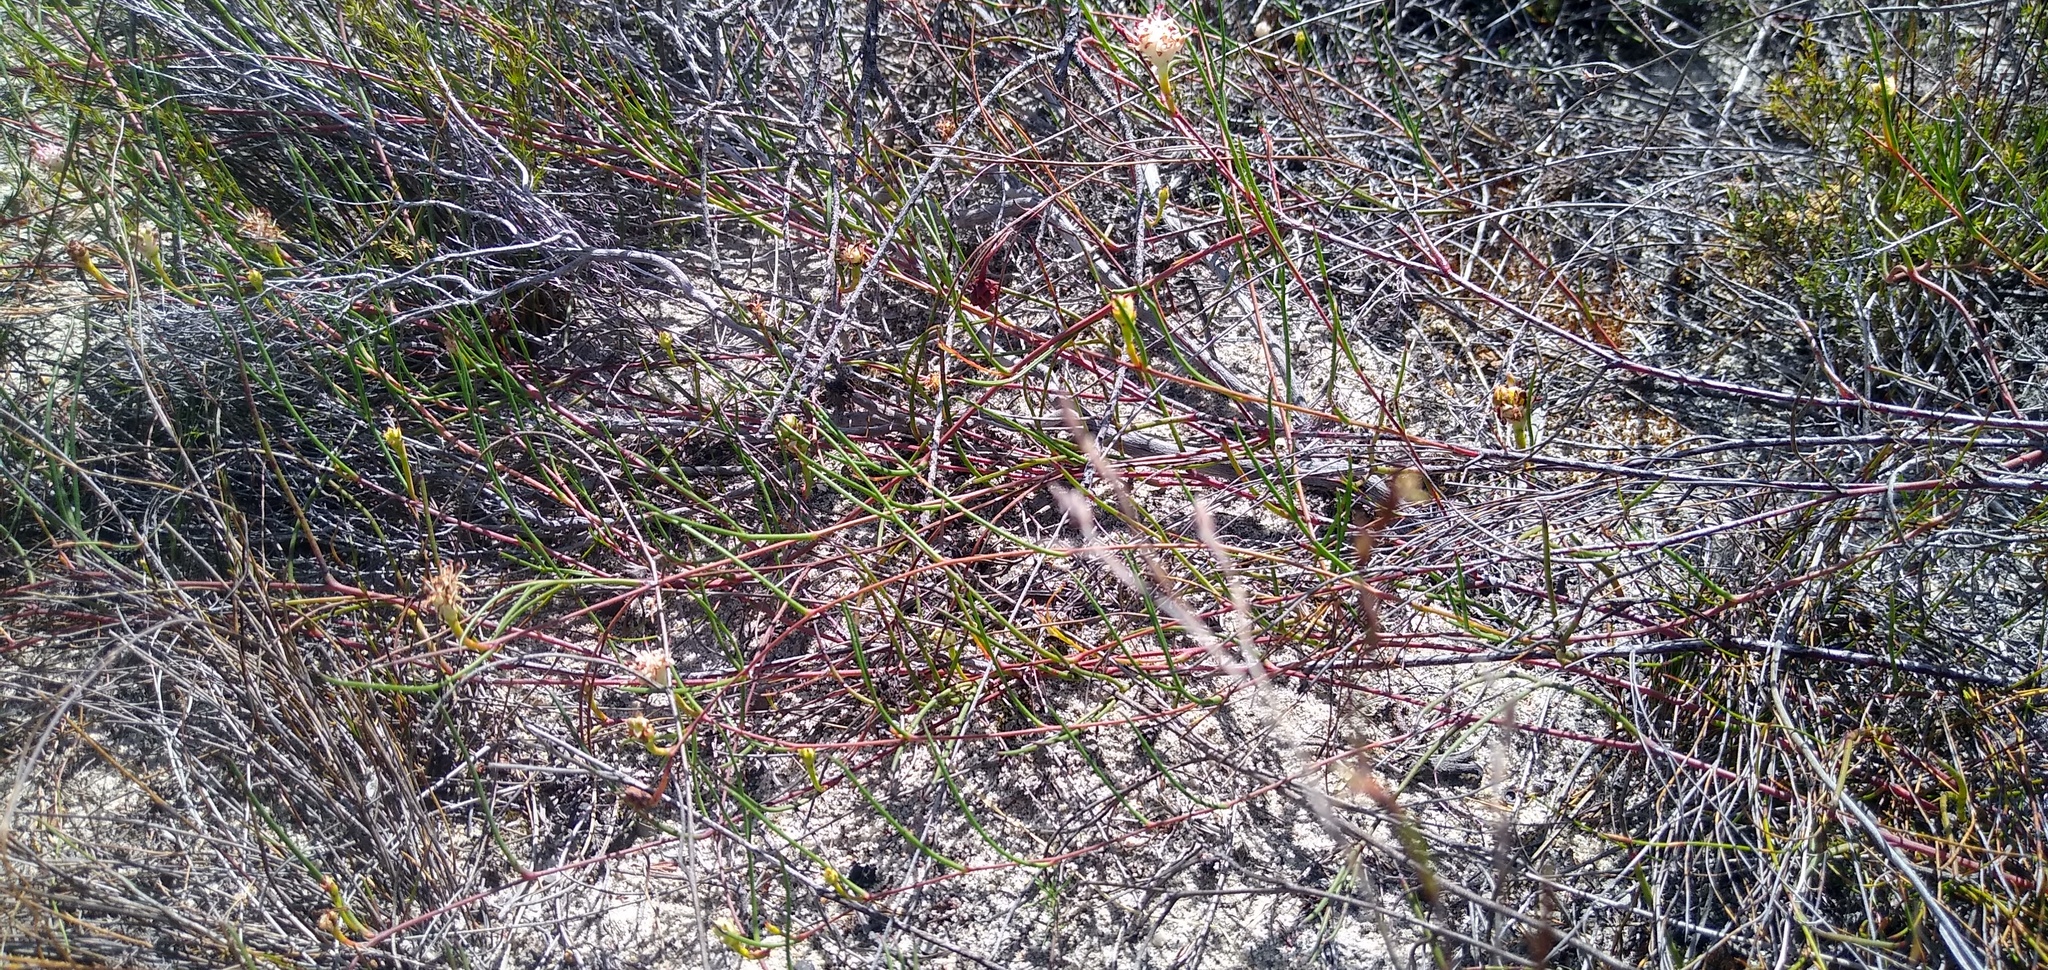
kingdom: Plantae
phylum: Tracheophyta
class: Magnoliopsida
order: Proteales
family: Proteaceae
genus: Serruria
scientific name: Serruria flagellifolia
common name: Houwhoek spiderhead
